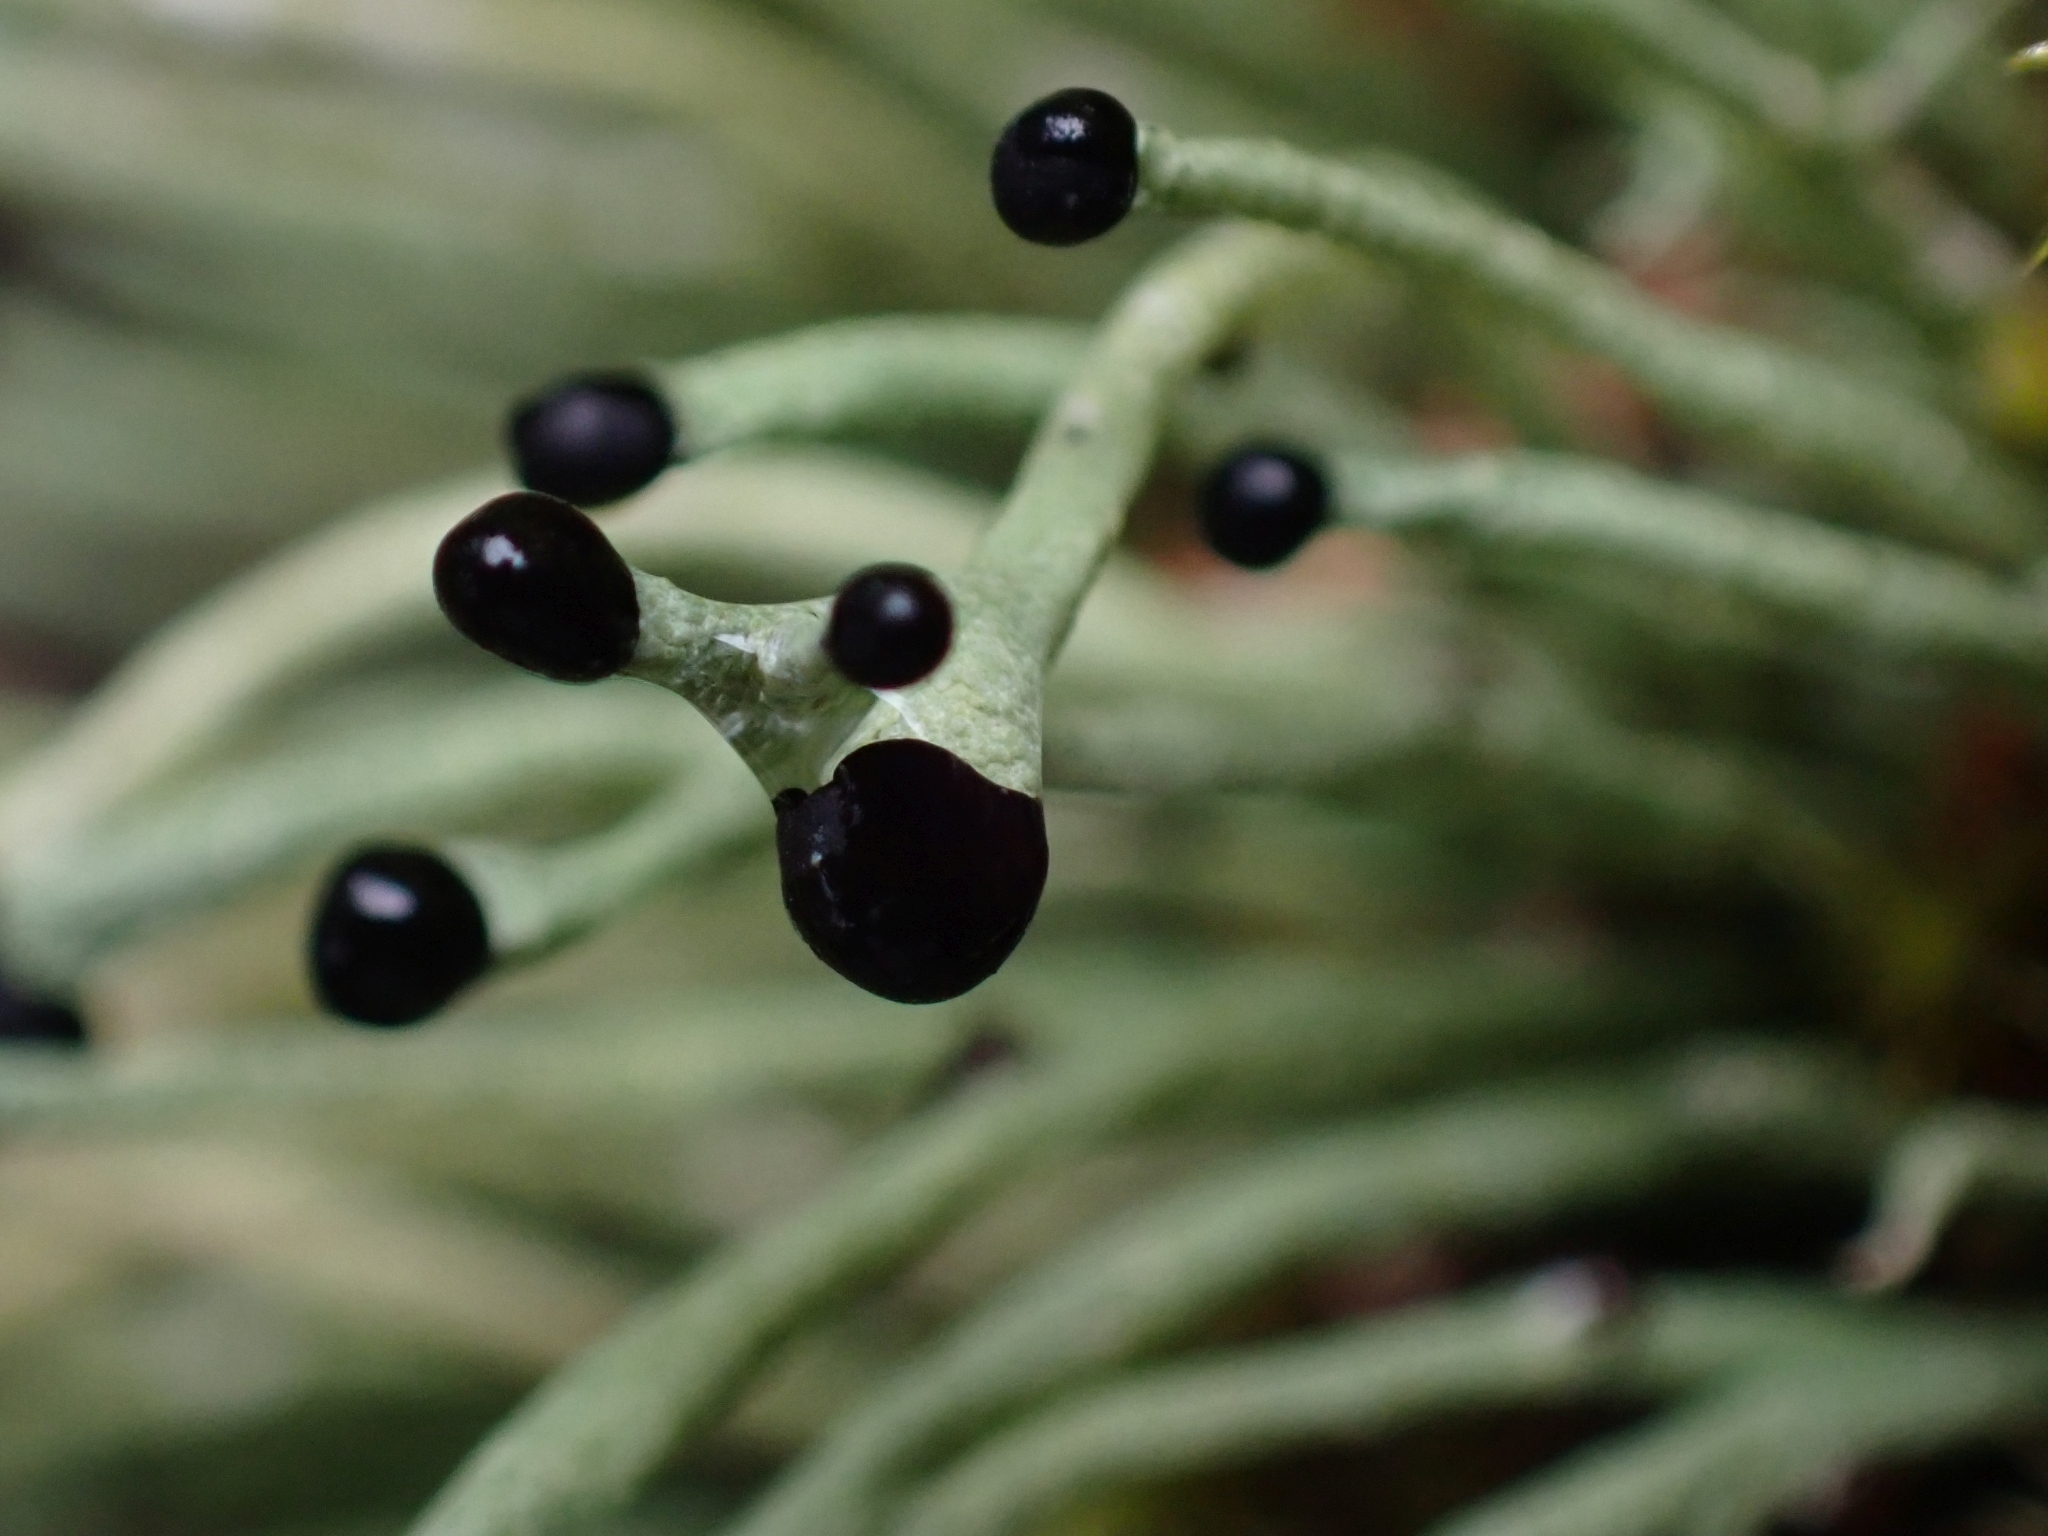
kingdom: Fungi
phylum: Ascomycota
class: Lecanoromycetes
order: Lecanorales
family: Cladoniaceae
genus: Pilophorus
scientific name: Pilophorus acicularis
